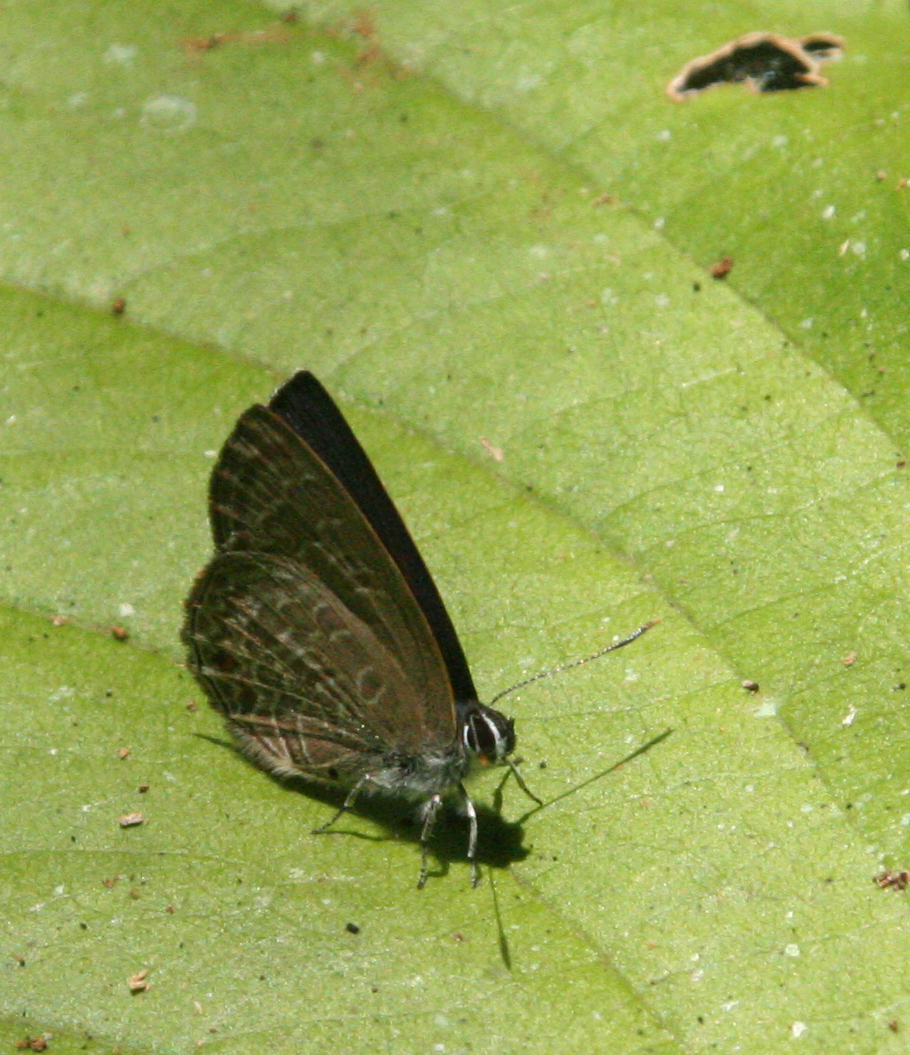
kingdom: Animalia
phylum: Arthropoda
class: Insecta
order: Lepidoptera
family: Lycaenidae
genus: Anthene
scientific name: Anthene emolus
